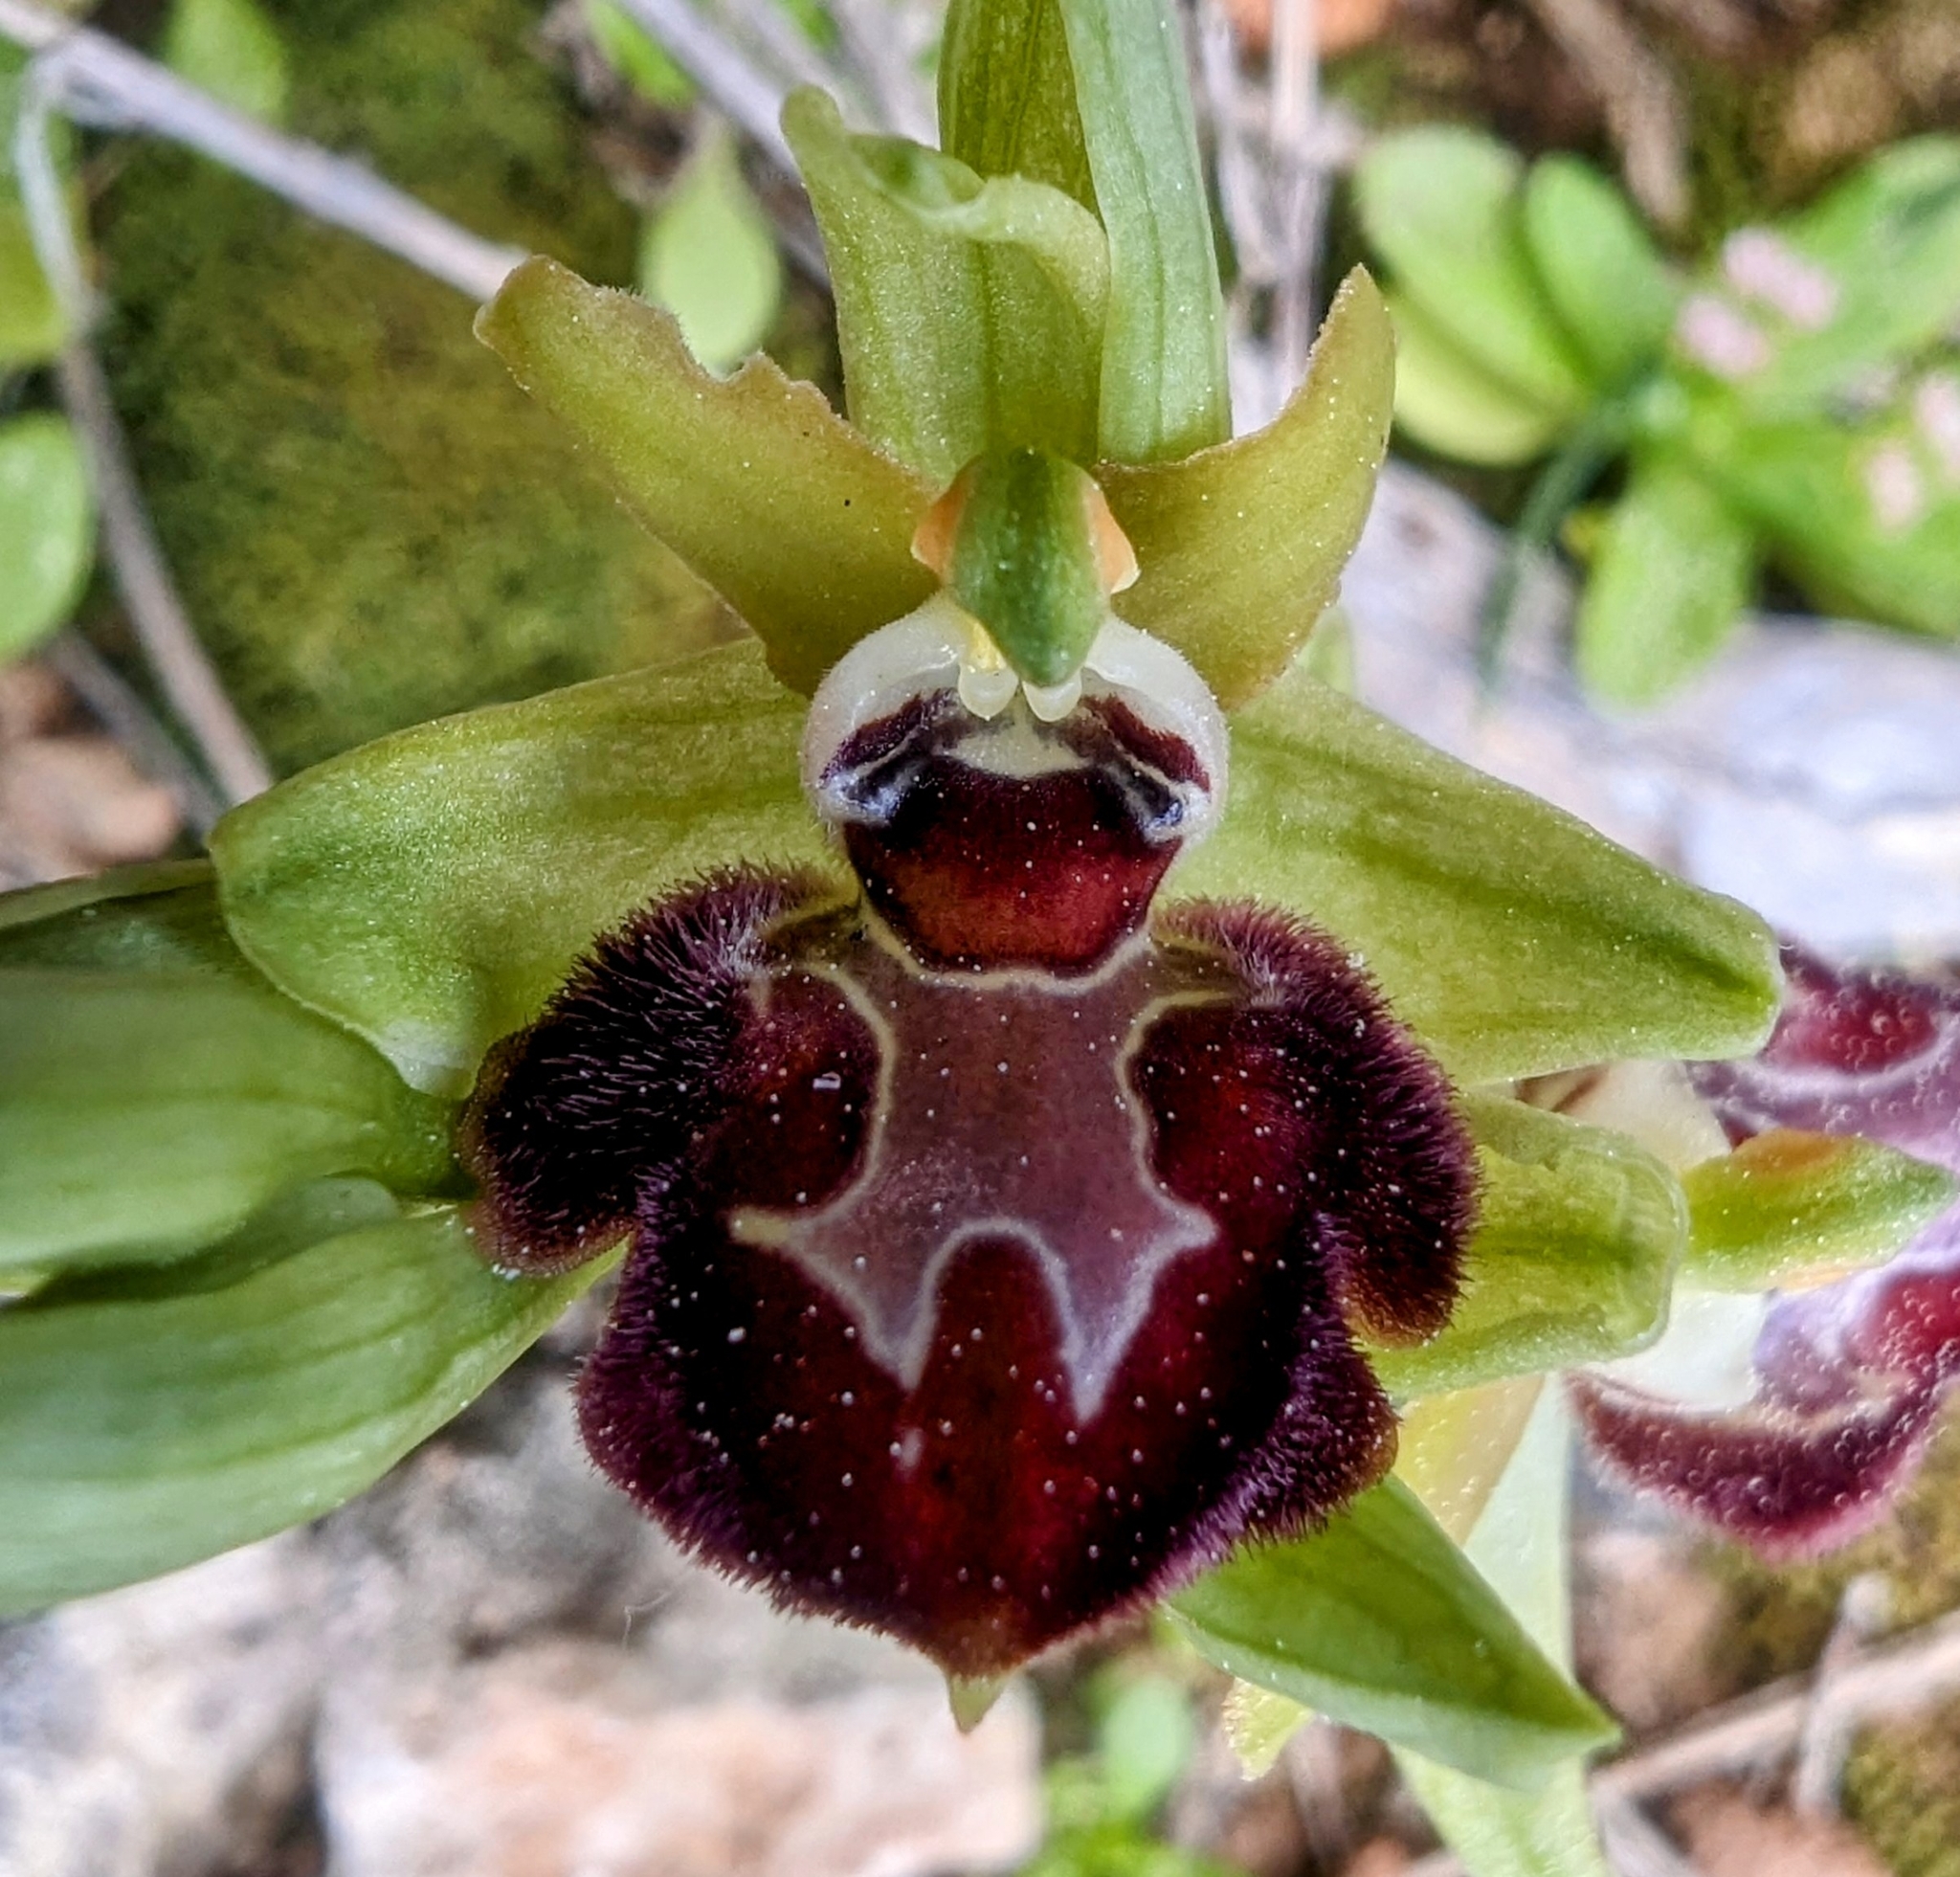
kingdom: Plantae
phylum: Tracheophyta
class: Liliopsida
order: Asparagales
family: Orchidaceae
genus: Ophrys
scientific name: Ophrys sphegodes
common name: Early spider-orchid
